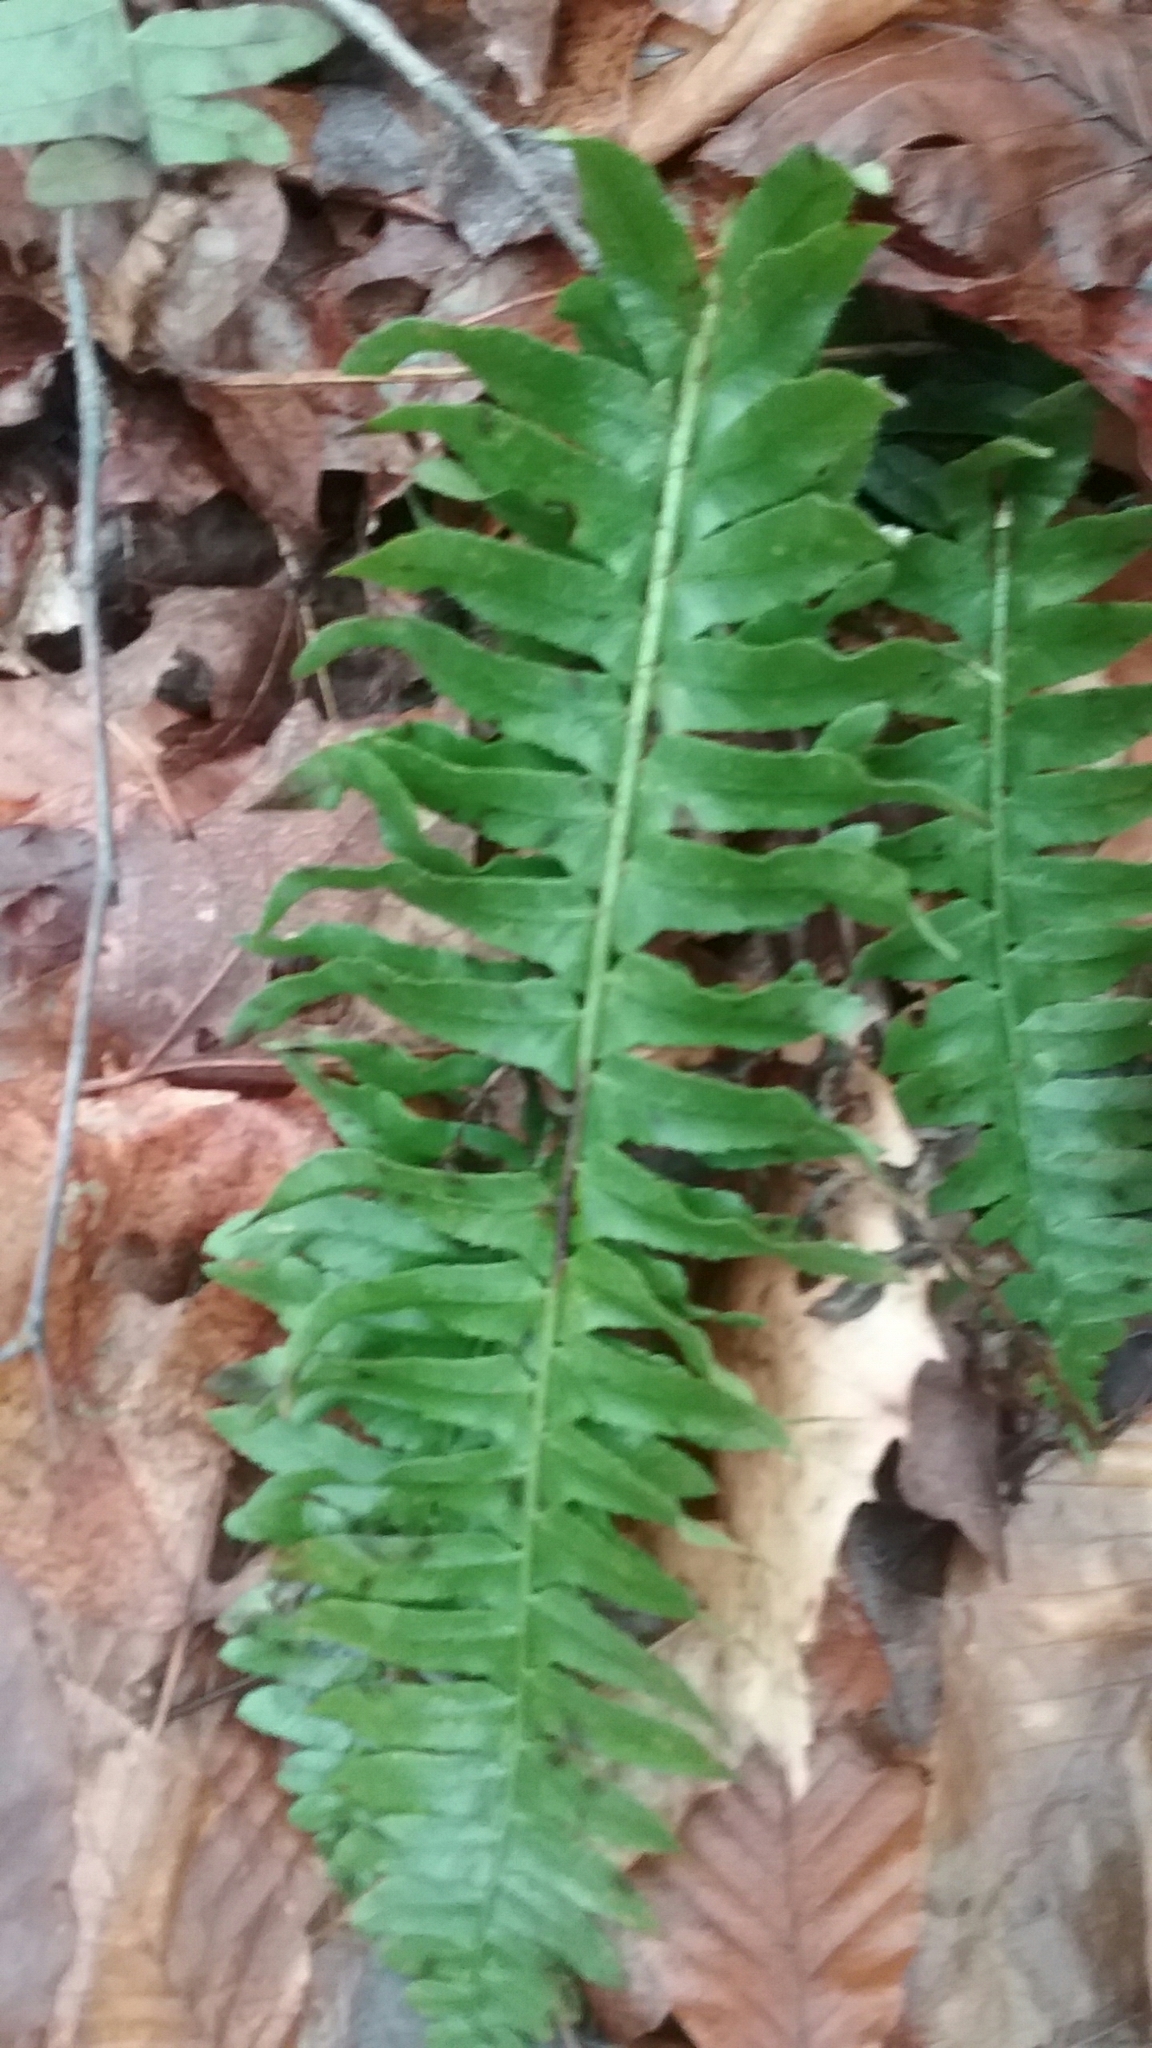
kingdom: Plantae
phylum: Tracheophyta
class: Polypodiopsida
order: Polypodiales
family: Dryopteridaceae
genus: Polystichum
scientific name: Polystichum acrostichoides
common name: Christmas fern
